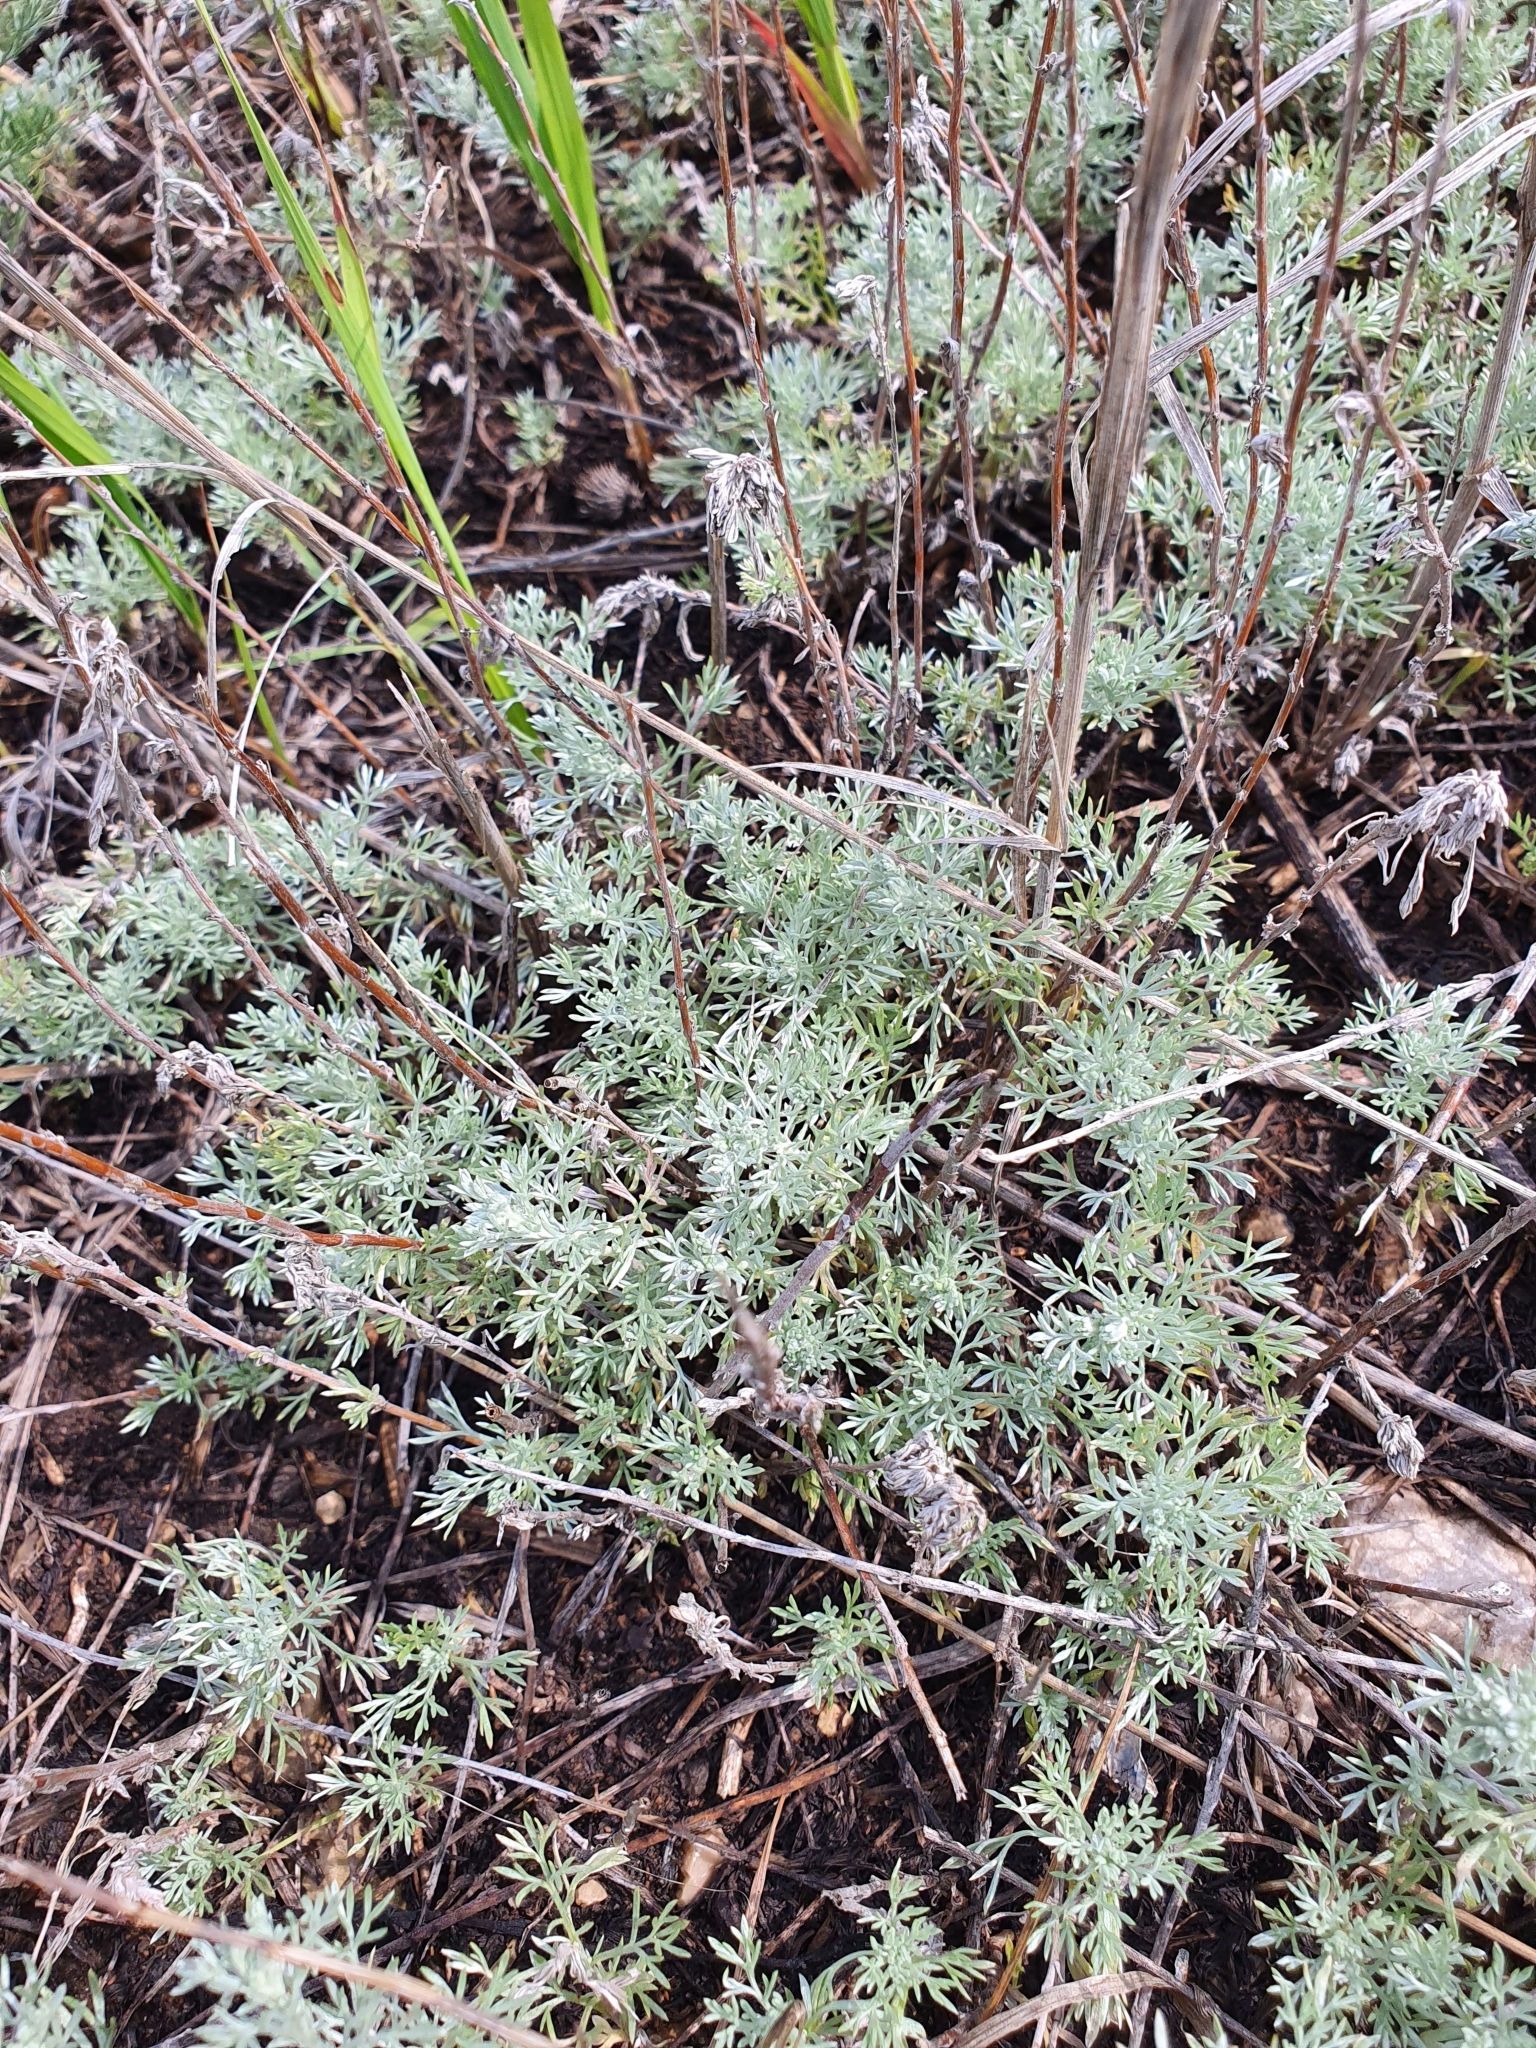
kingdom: Plantae
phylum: Tracheophyta
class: Magnoliopsida
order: Asterales
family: Asteraceae
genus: Artemisia
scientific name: Artemisia austriaca
